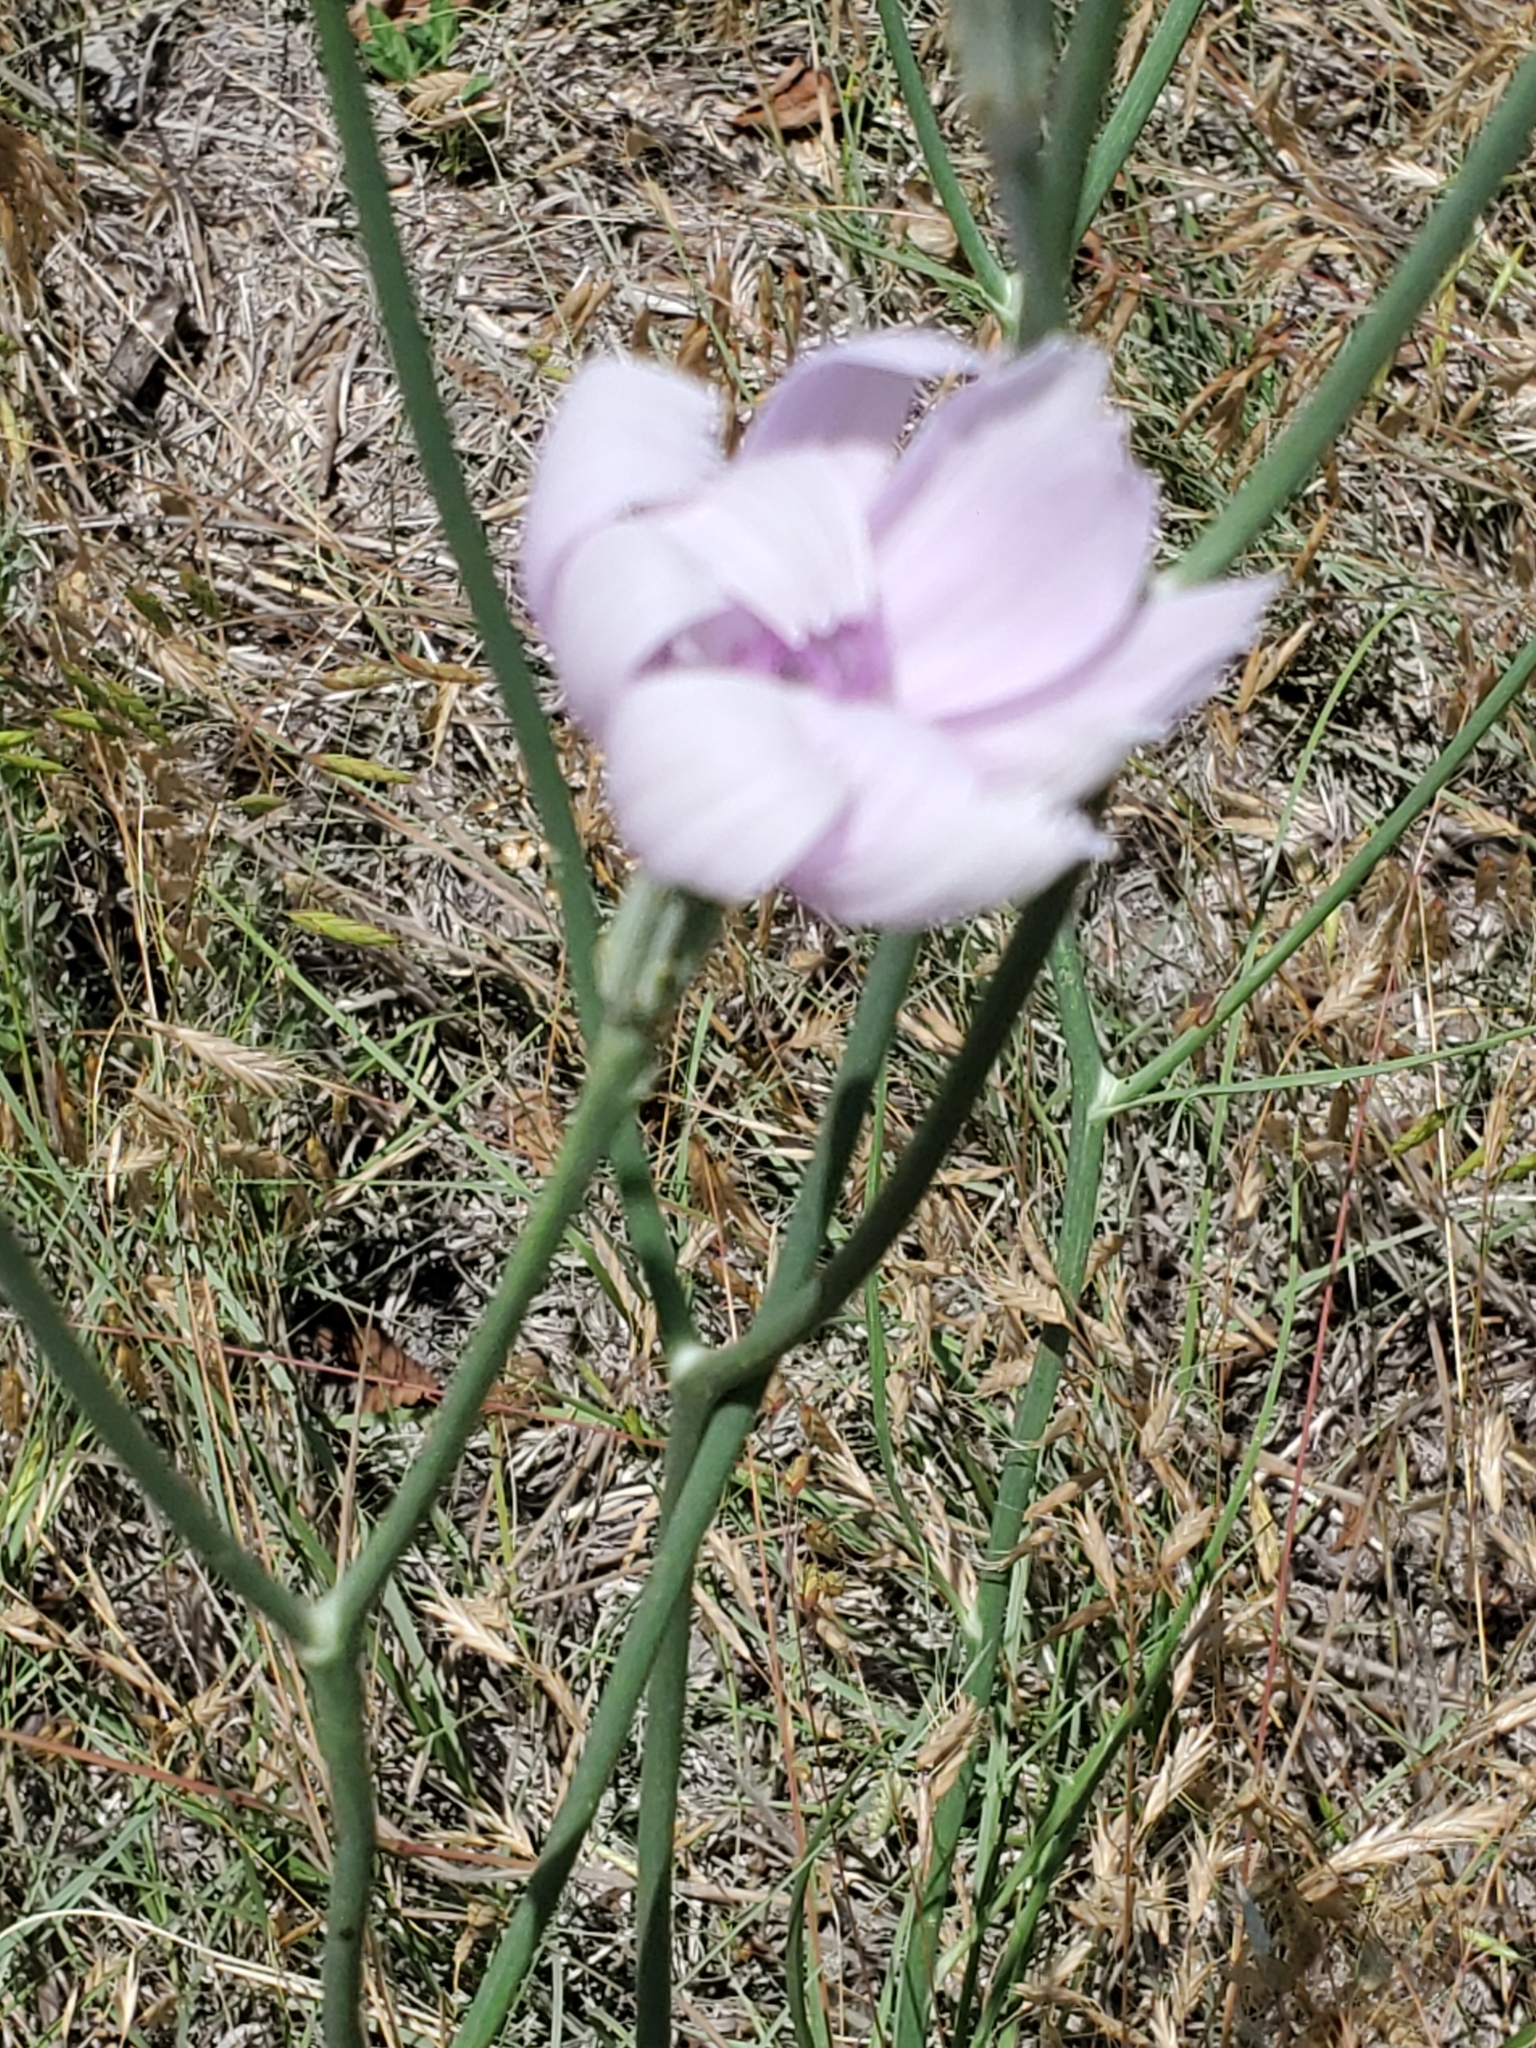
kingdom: Plantae
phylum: Tracheophyta
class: Magnoliopsida
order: Asterales
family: Asteraceae
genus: Lygodesmia
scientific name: Lygodesmia texana
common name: Texas skeleton-plant
